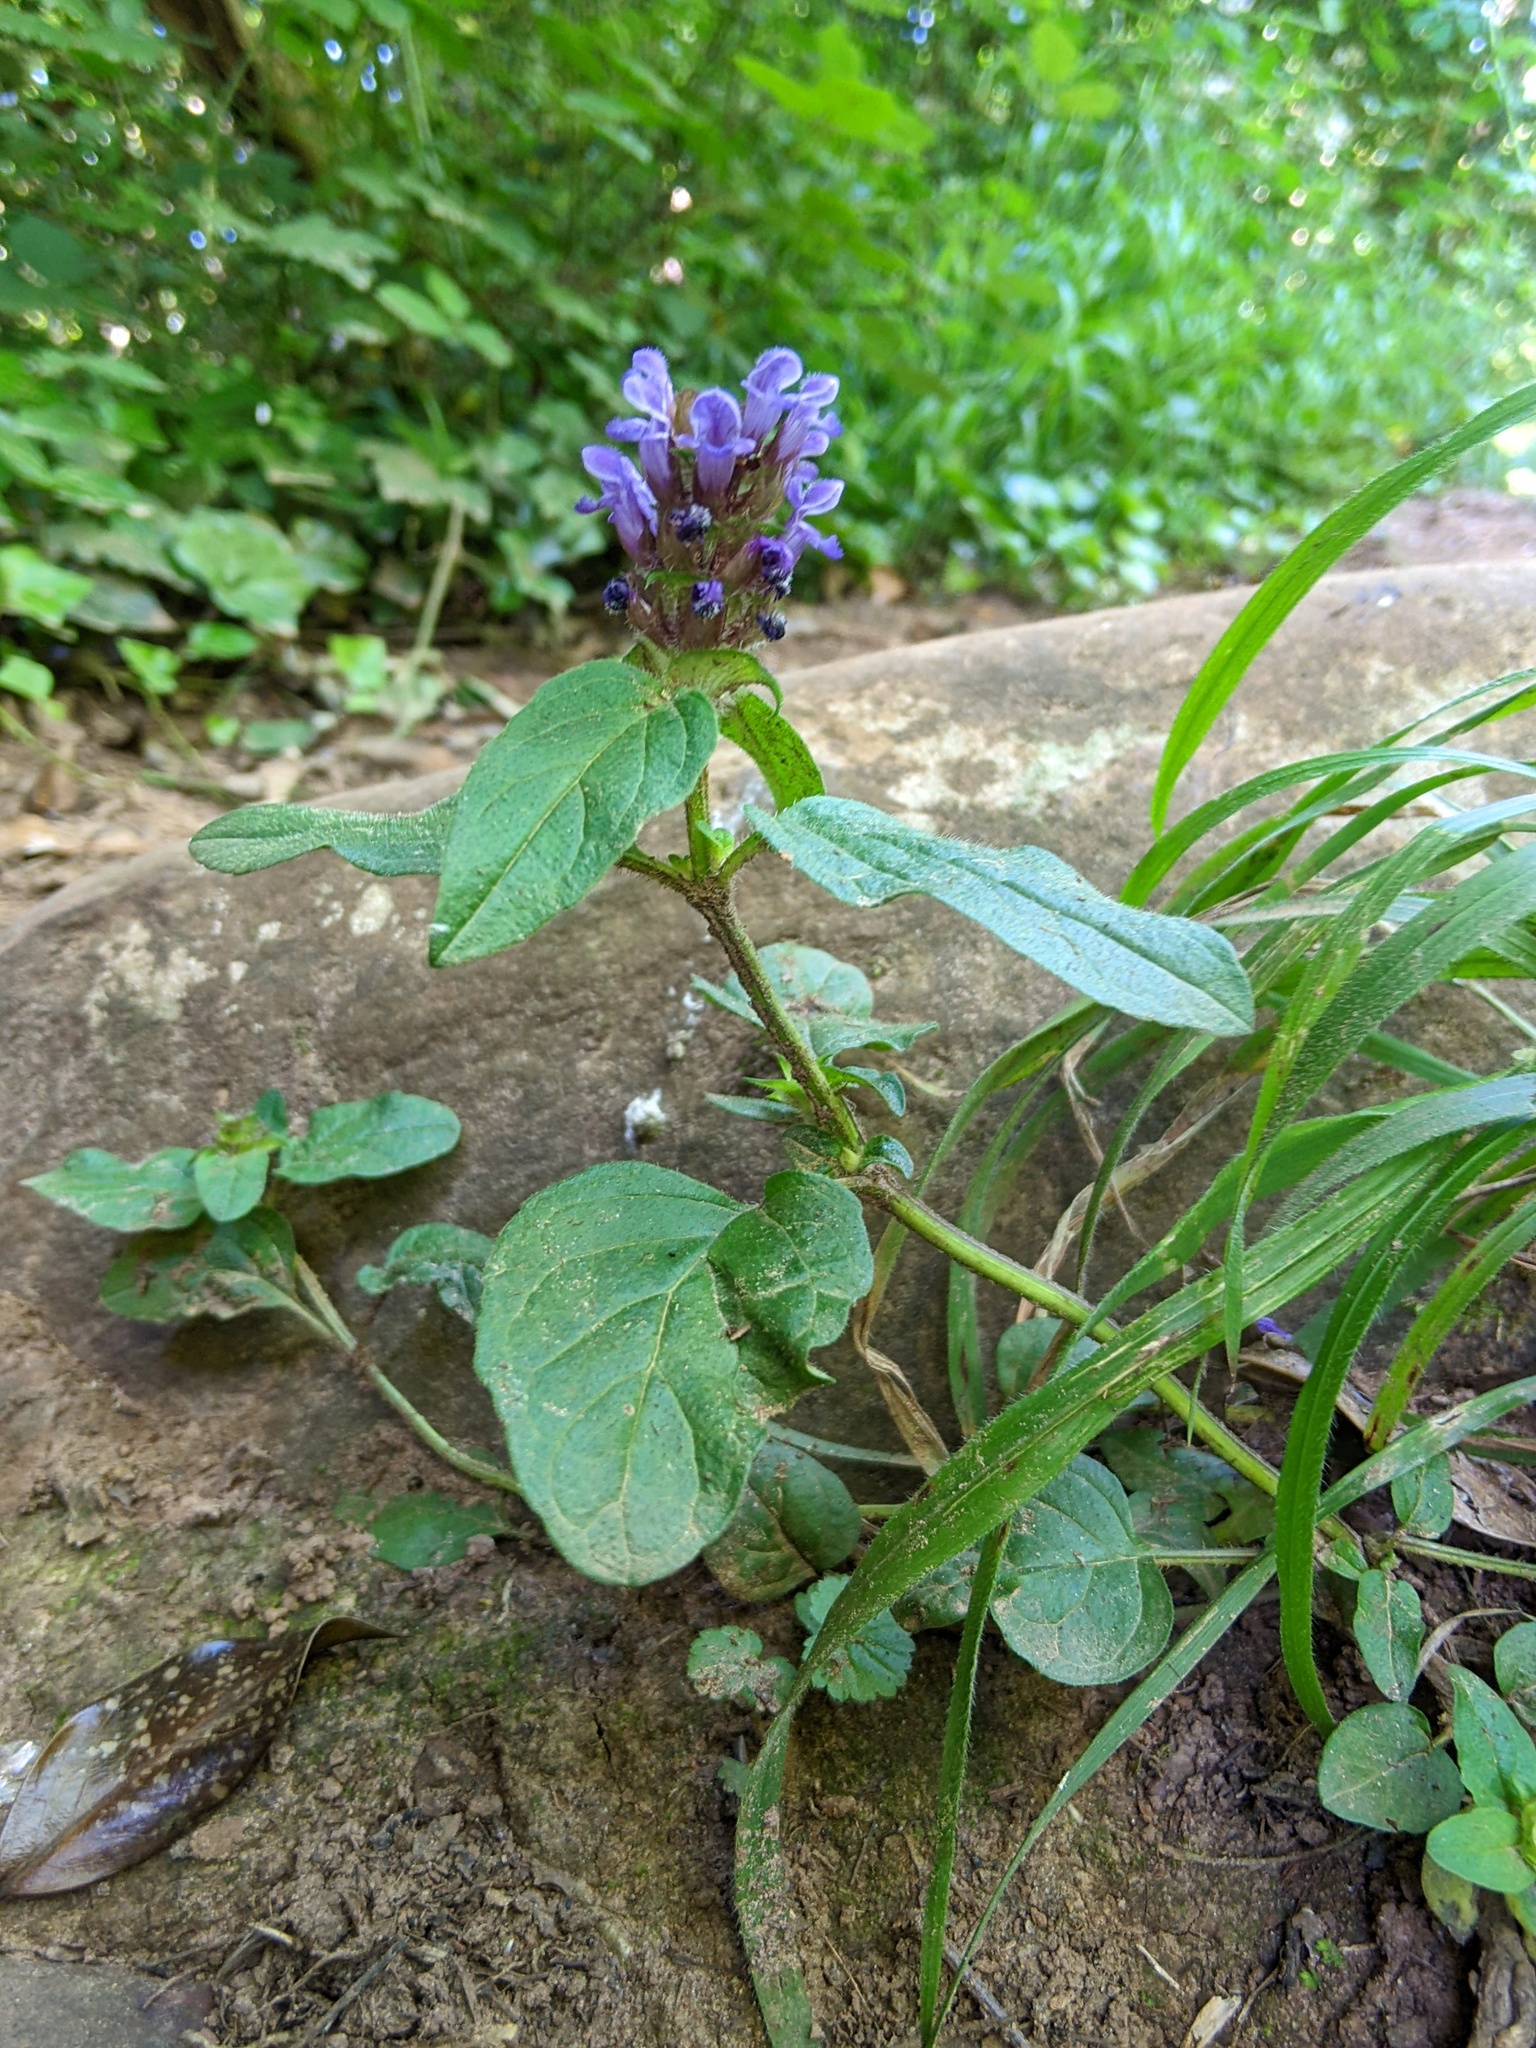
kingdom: Plantae
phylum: Tracheophyta
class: Magnoliopsida
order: Lamiales
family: Lamiaceae
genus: Prunella
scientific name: Prunella vulgaris
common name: Heal-all
